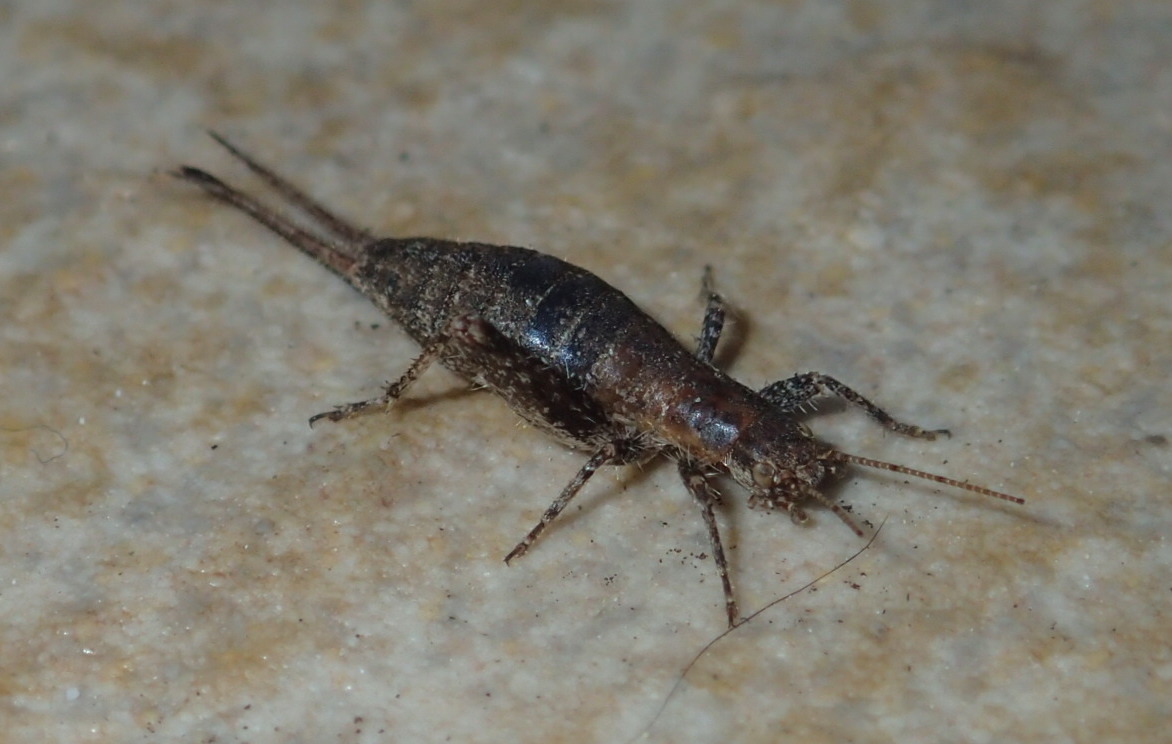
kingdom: Animalia
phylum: Arthropoda
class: Insecta
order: Orthoptera
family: Mogoplistidae
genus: Arachnocephalus
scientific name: Arachnocephalus vestitus
